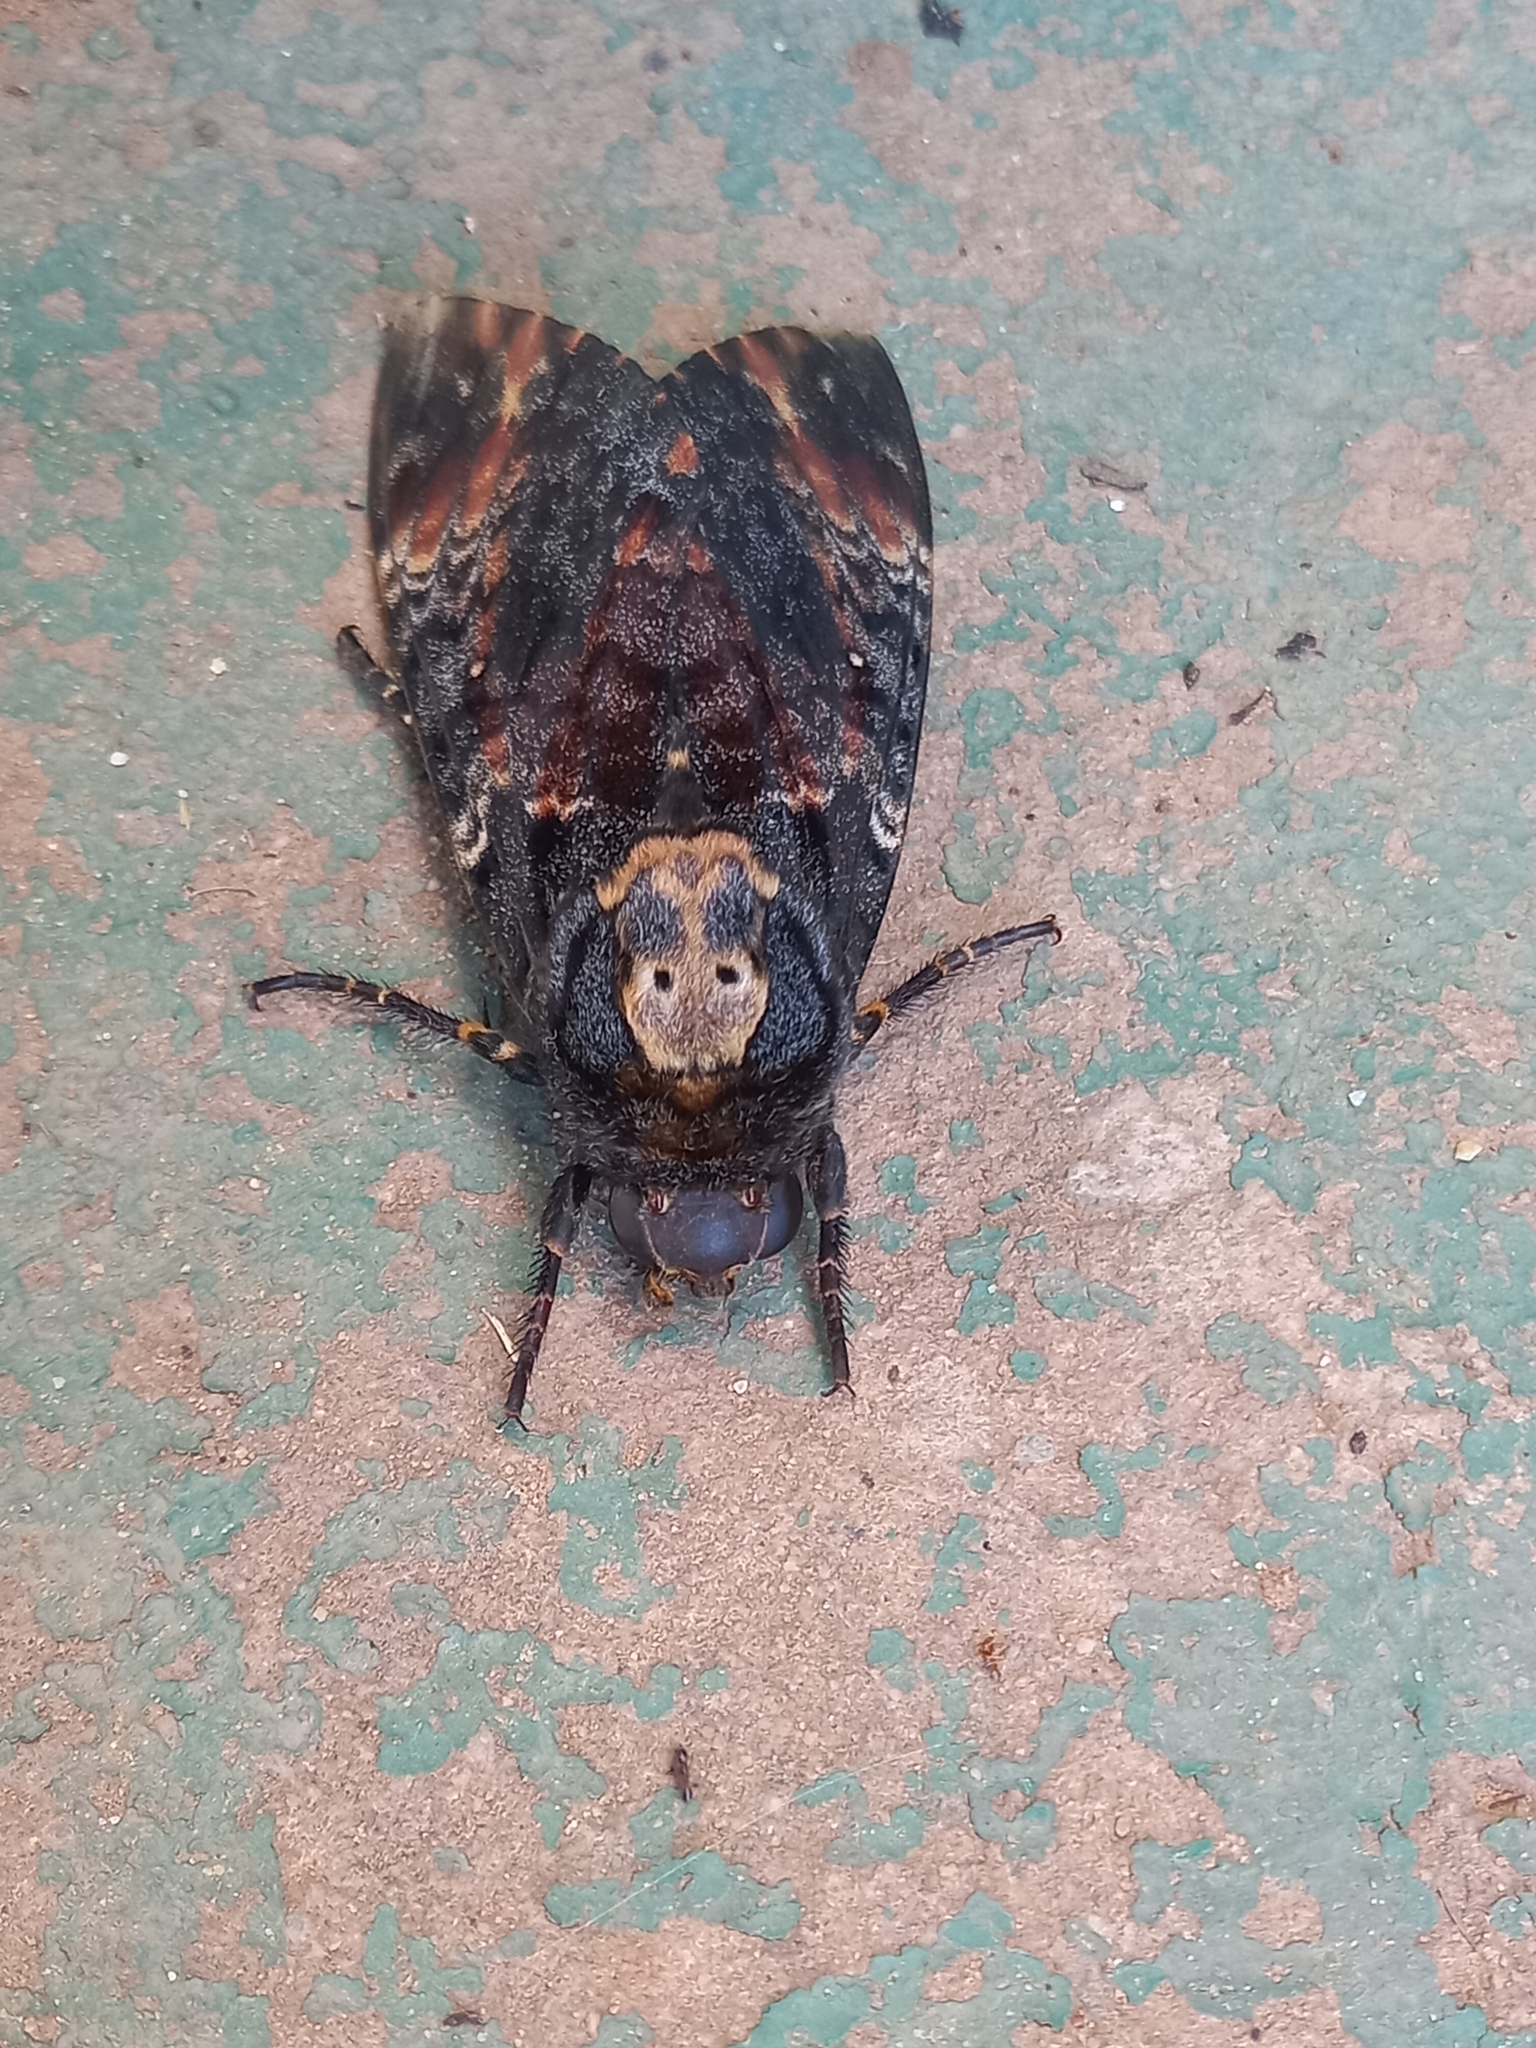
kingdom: Animalia
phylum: Arthropoda
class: Insecta
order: Lepidoptera
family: Sphingidae
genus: Acherontia
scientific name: Acherontia atropos
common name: Death's-head hawk moth
